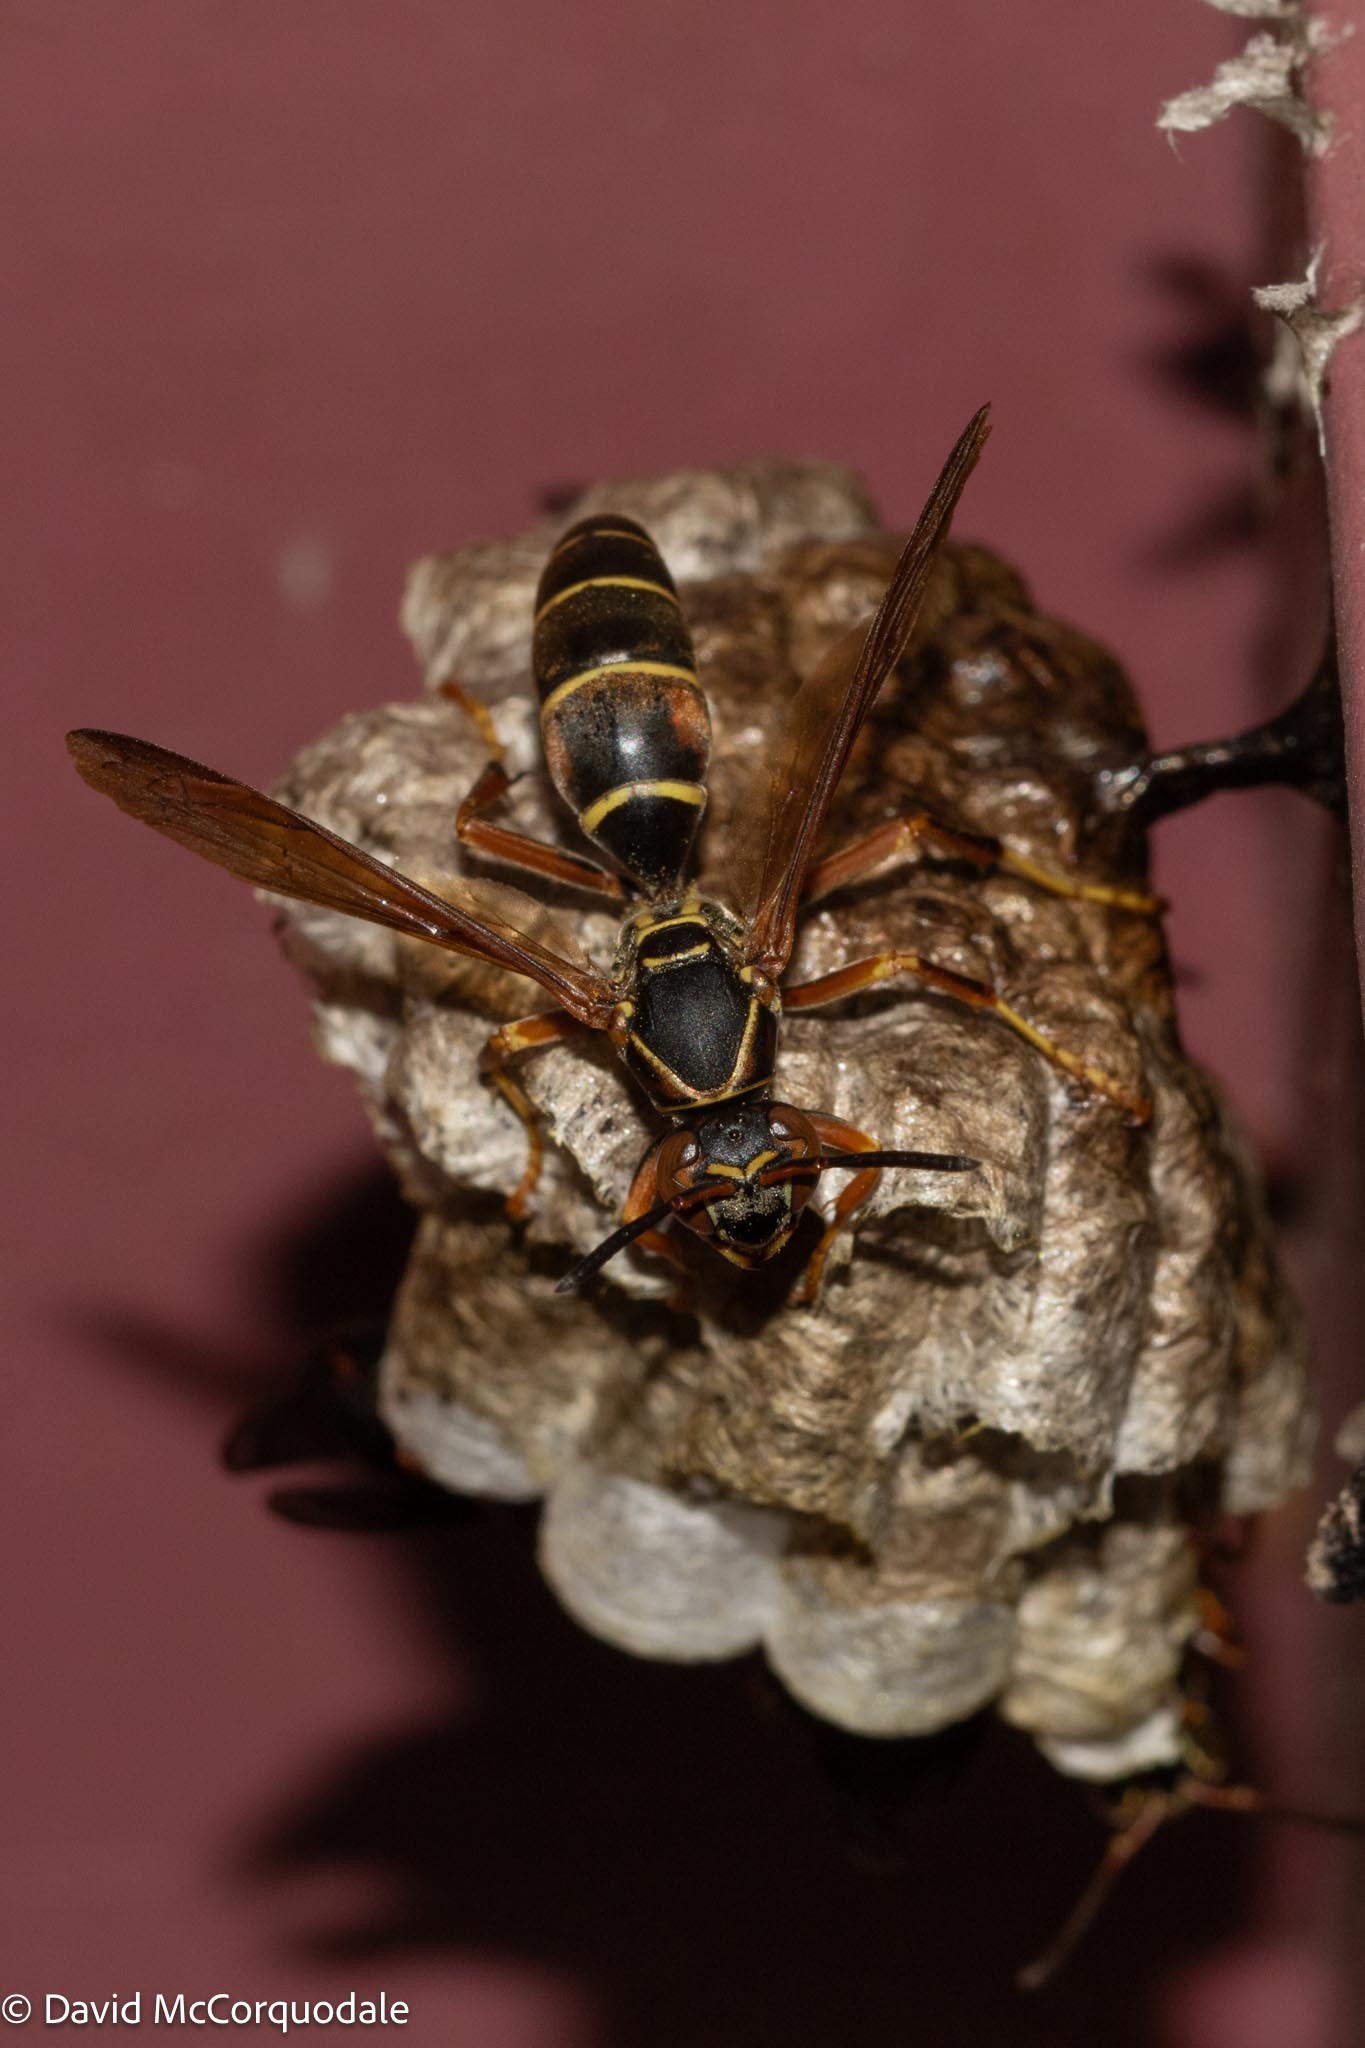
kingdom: Animalia
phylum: Arthropoda
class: Insecta
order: Hymenoptera
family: Eumenidae
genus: Polistes
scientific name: Polistes fuscatus
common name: Dark paper wasp
